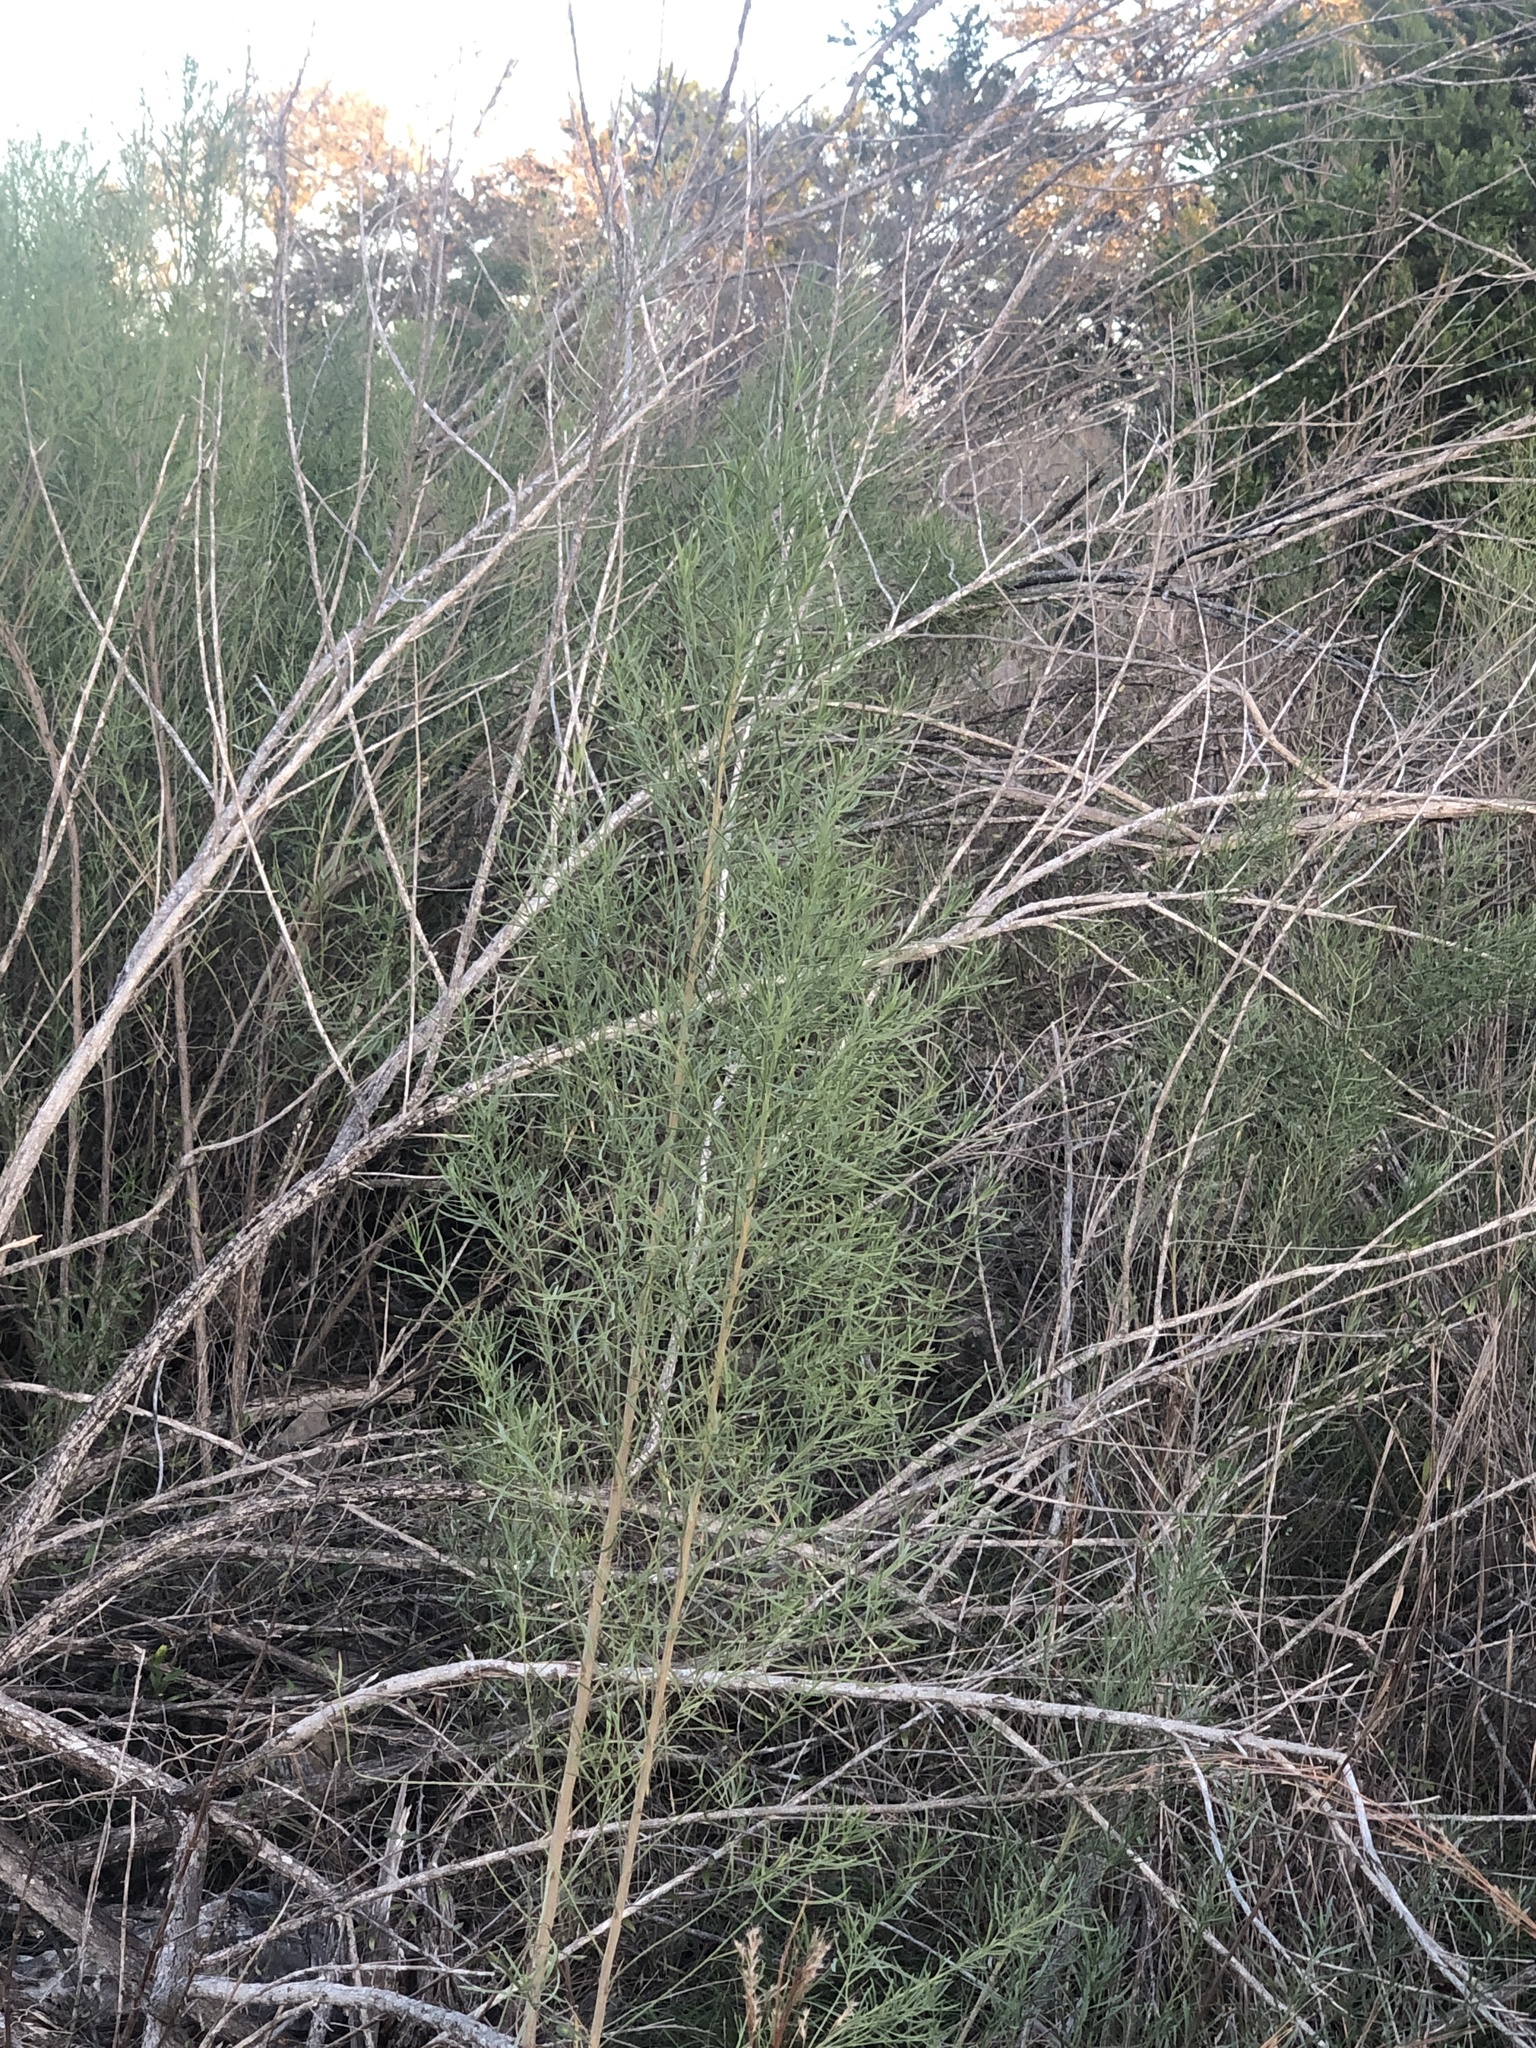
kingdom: Plantae
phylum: Tracheophyta
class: Magnoliopsida
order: Asterales
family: Asteraceae
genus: Baccharis
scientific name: Baccharis neglecta
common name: Roosevelt-weed
